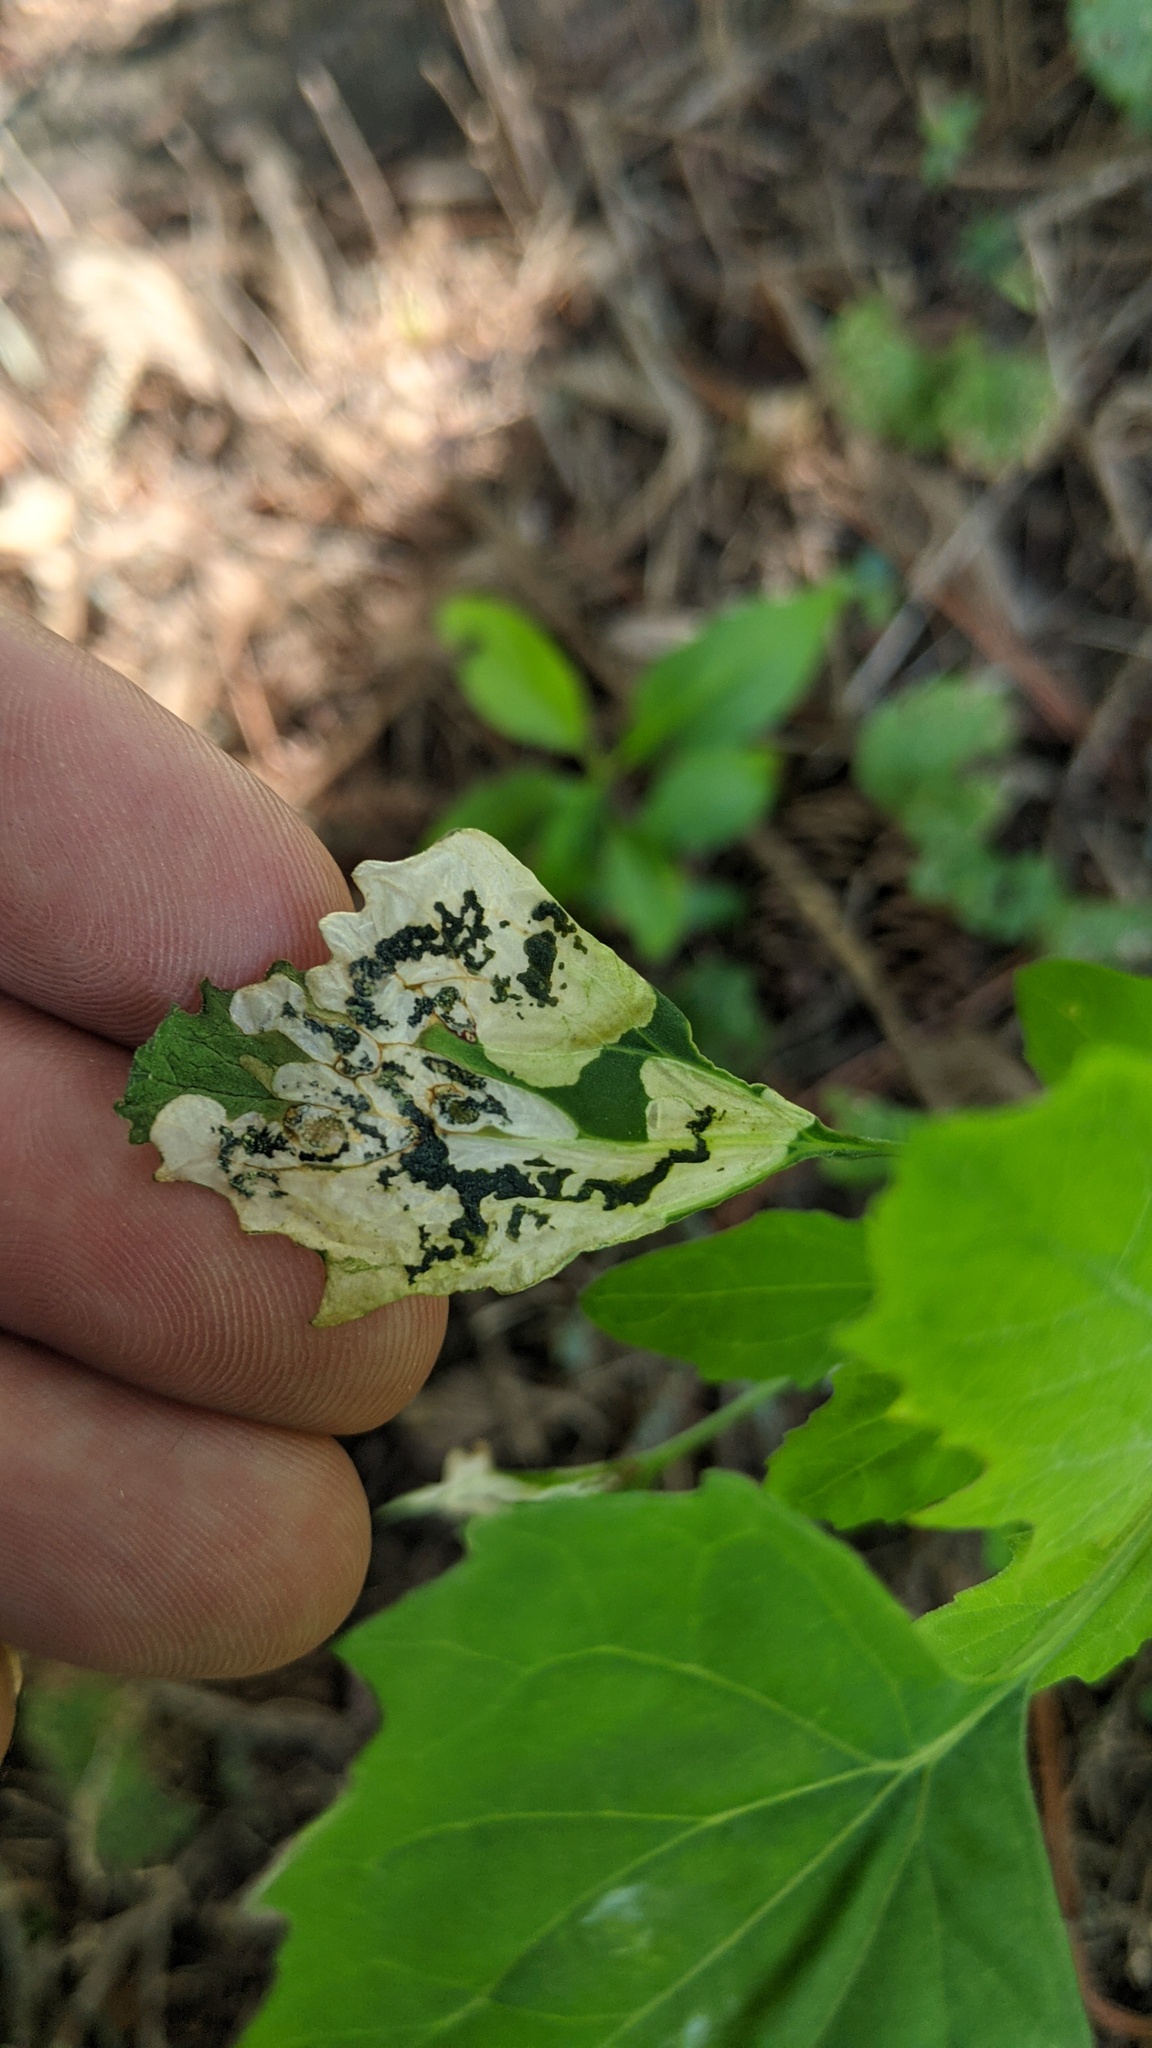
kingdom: Animalia
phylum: Arthropoda
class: Insecta
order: Lepidoptera
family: Gelechiidae
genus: Chrysoesthia
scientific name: Chrysoesthia sexguttella
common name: Moth
